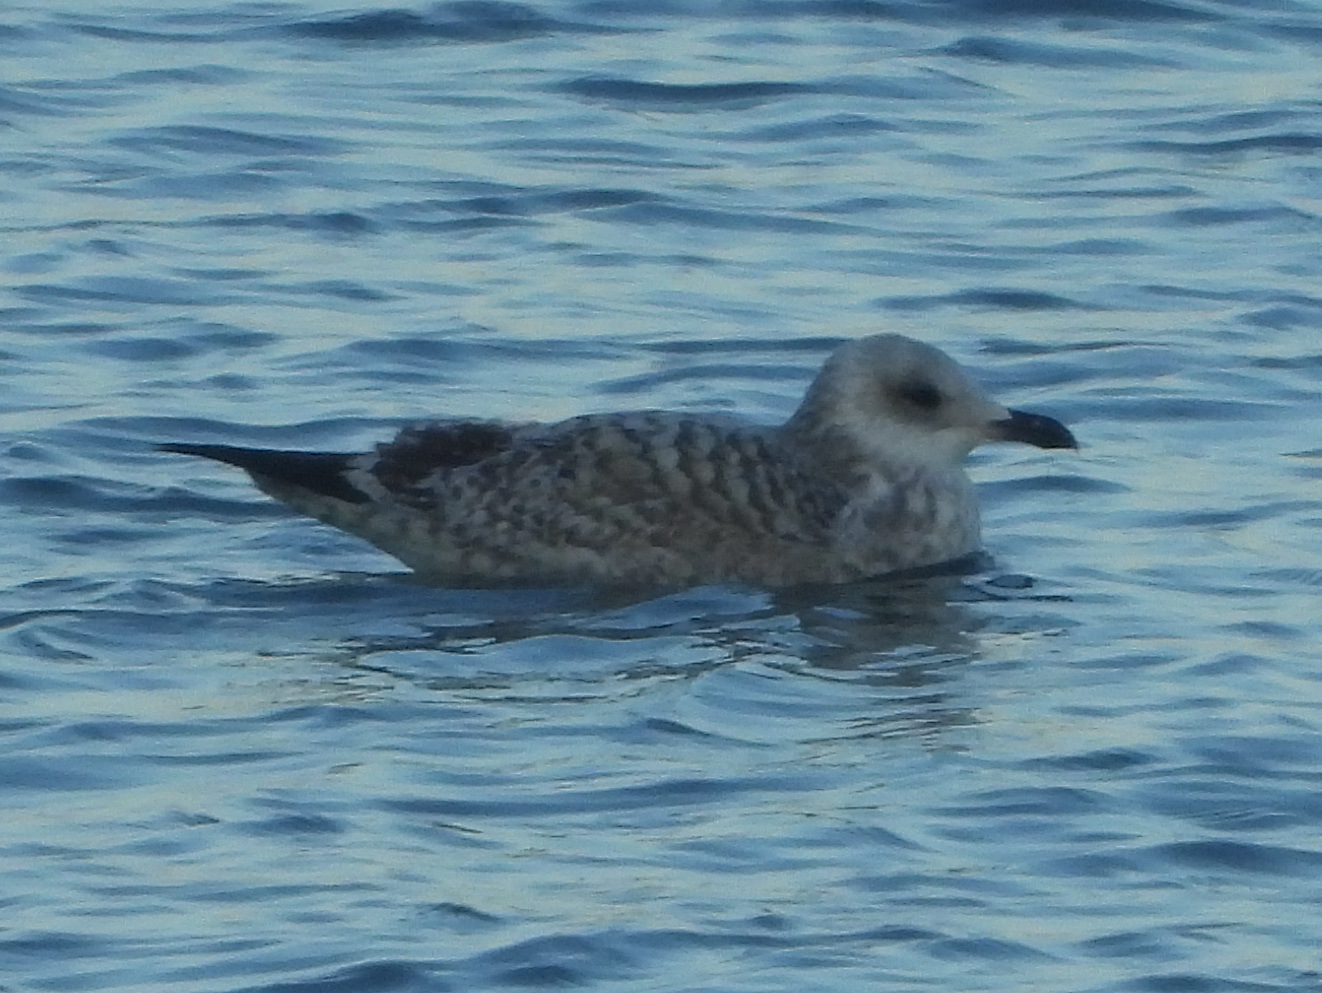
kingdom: Animalia
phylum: Chordata
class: Aves
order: Charadriiformes
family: Laridae
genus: Larus
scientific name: Larus argentatus
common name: Herring gull
